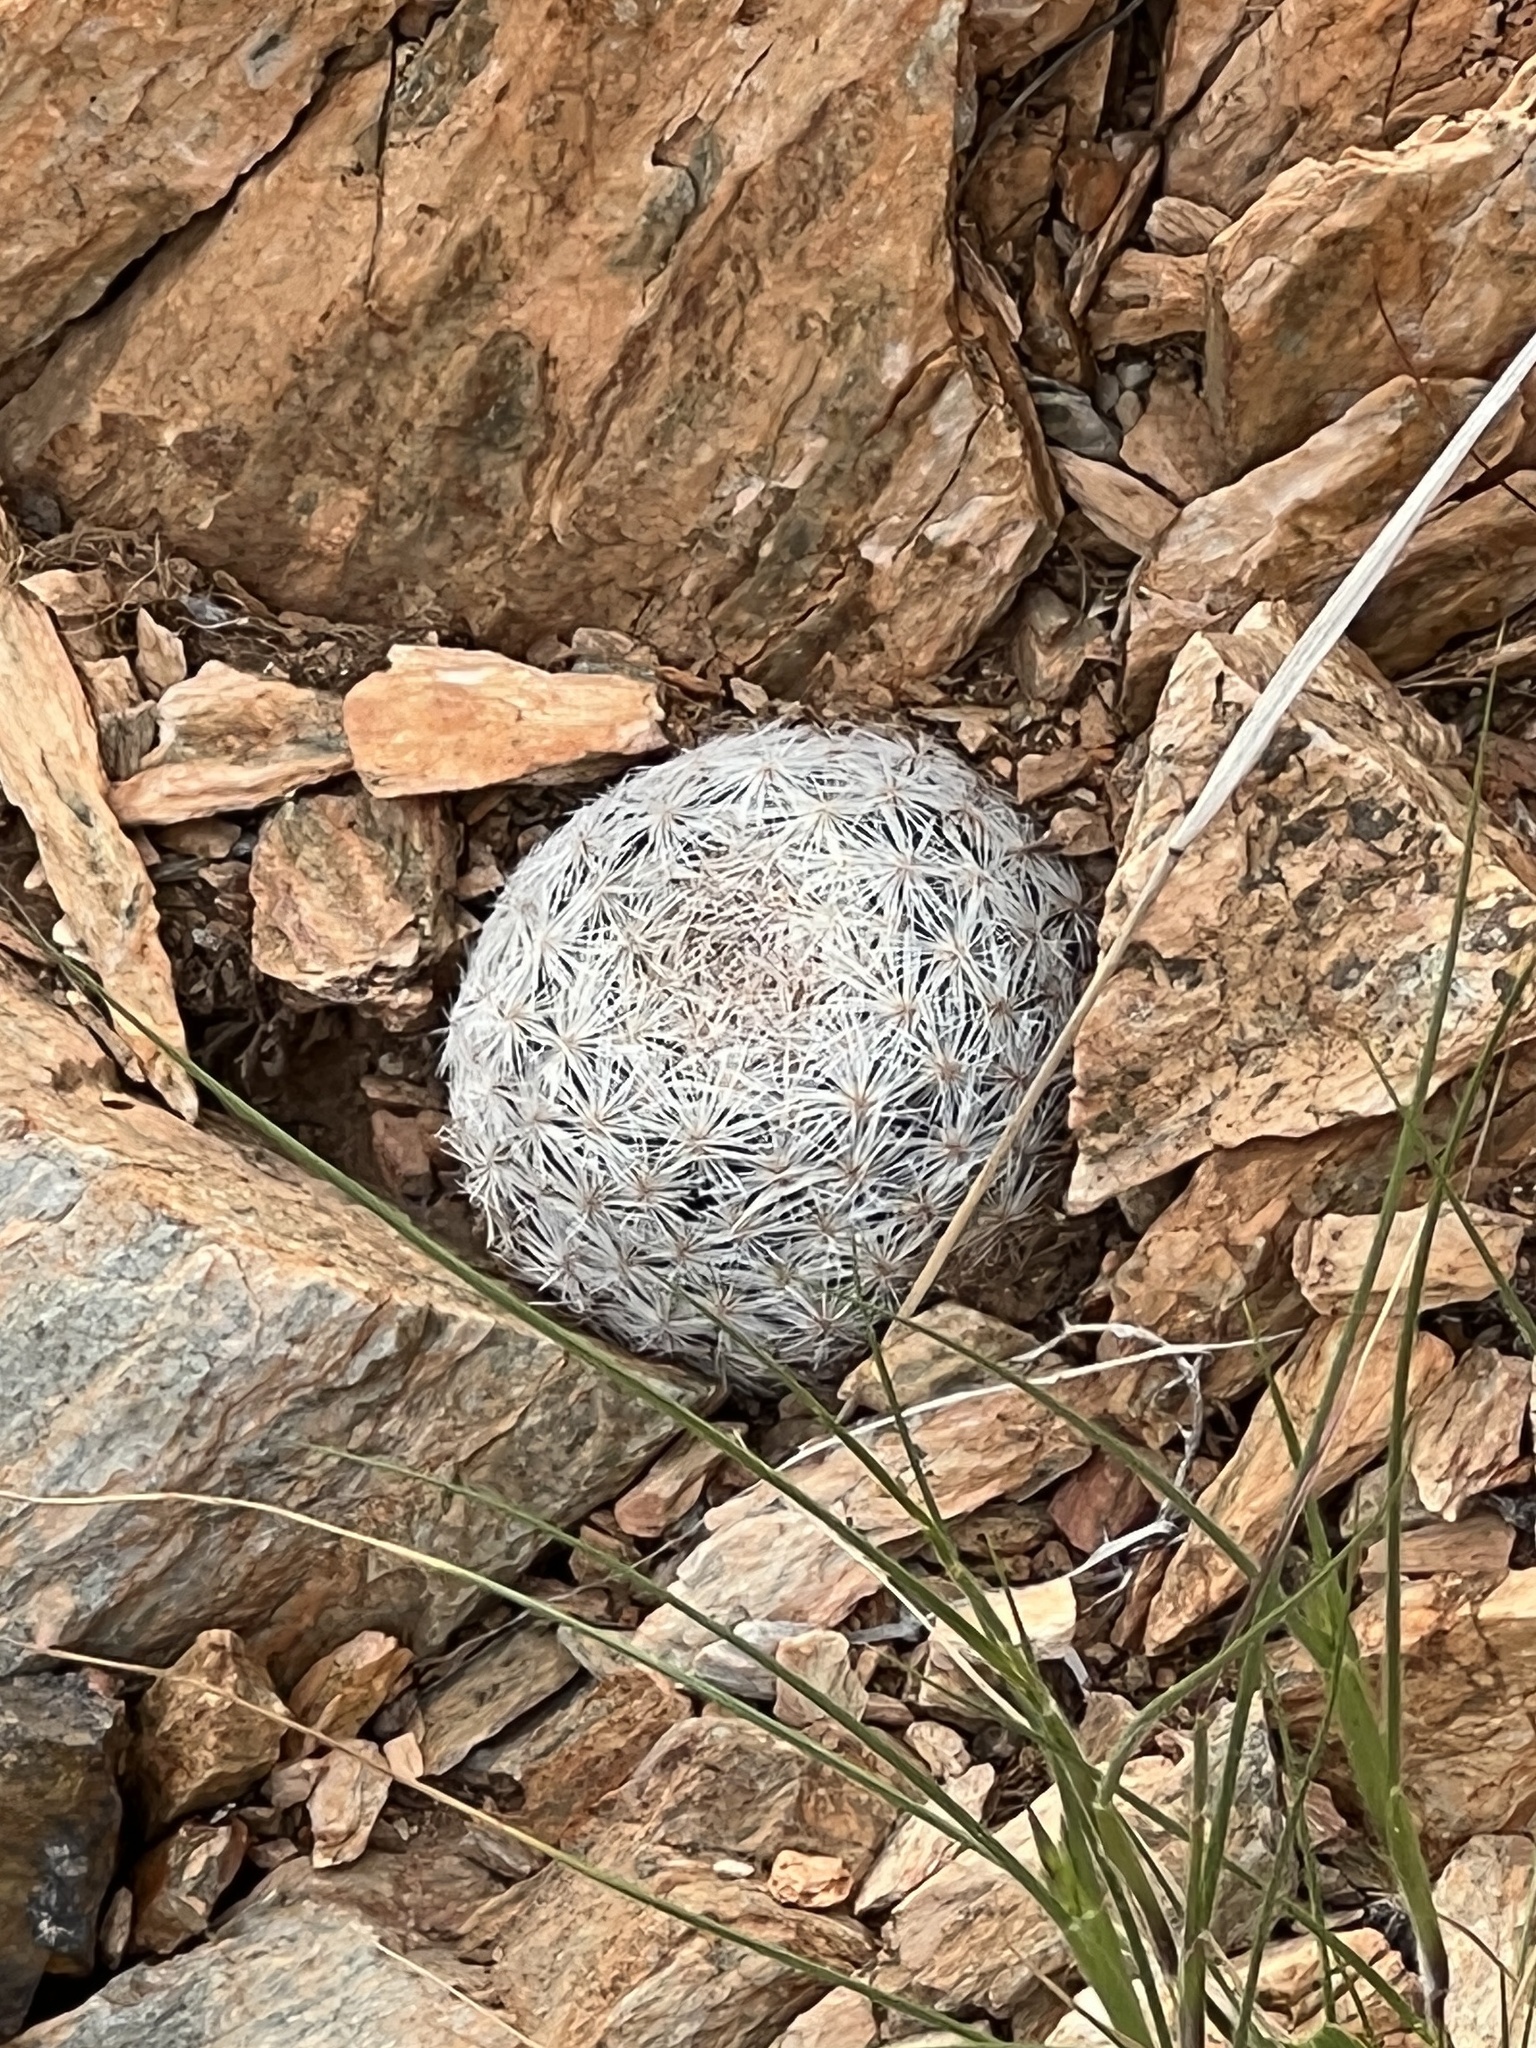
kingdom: Plantae
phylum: Tracheophyta
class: Magnoliopsida
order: Caryophyllales
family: Cactaceae
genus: Mammillaria
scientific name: Mammillaria lasiacantha
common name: Lace-spine nipple cactus
